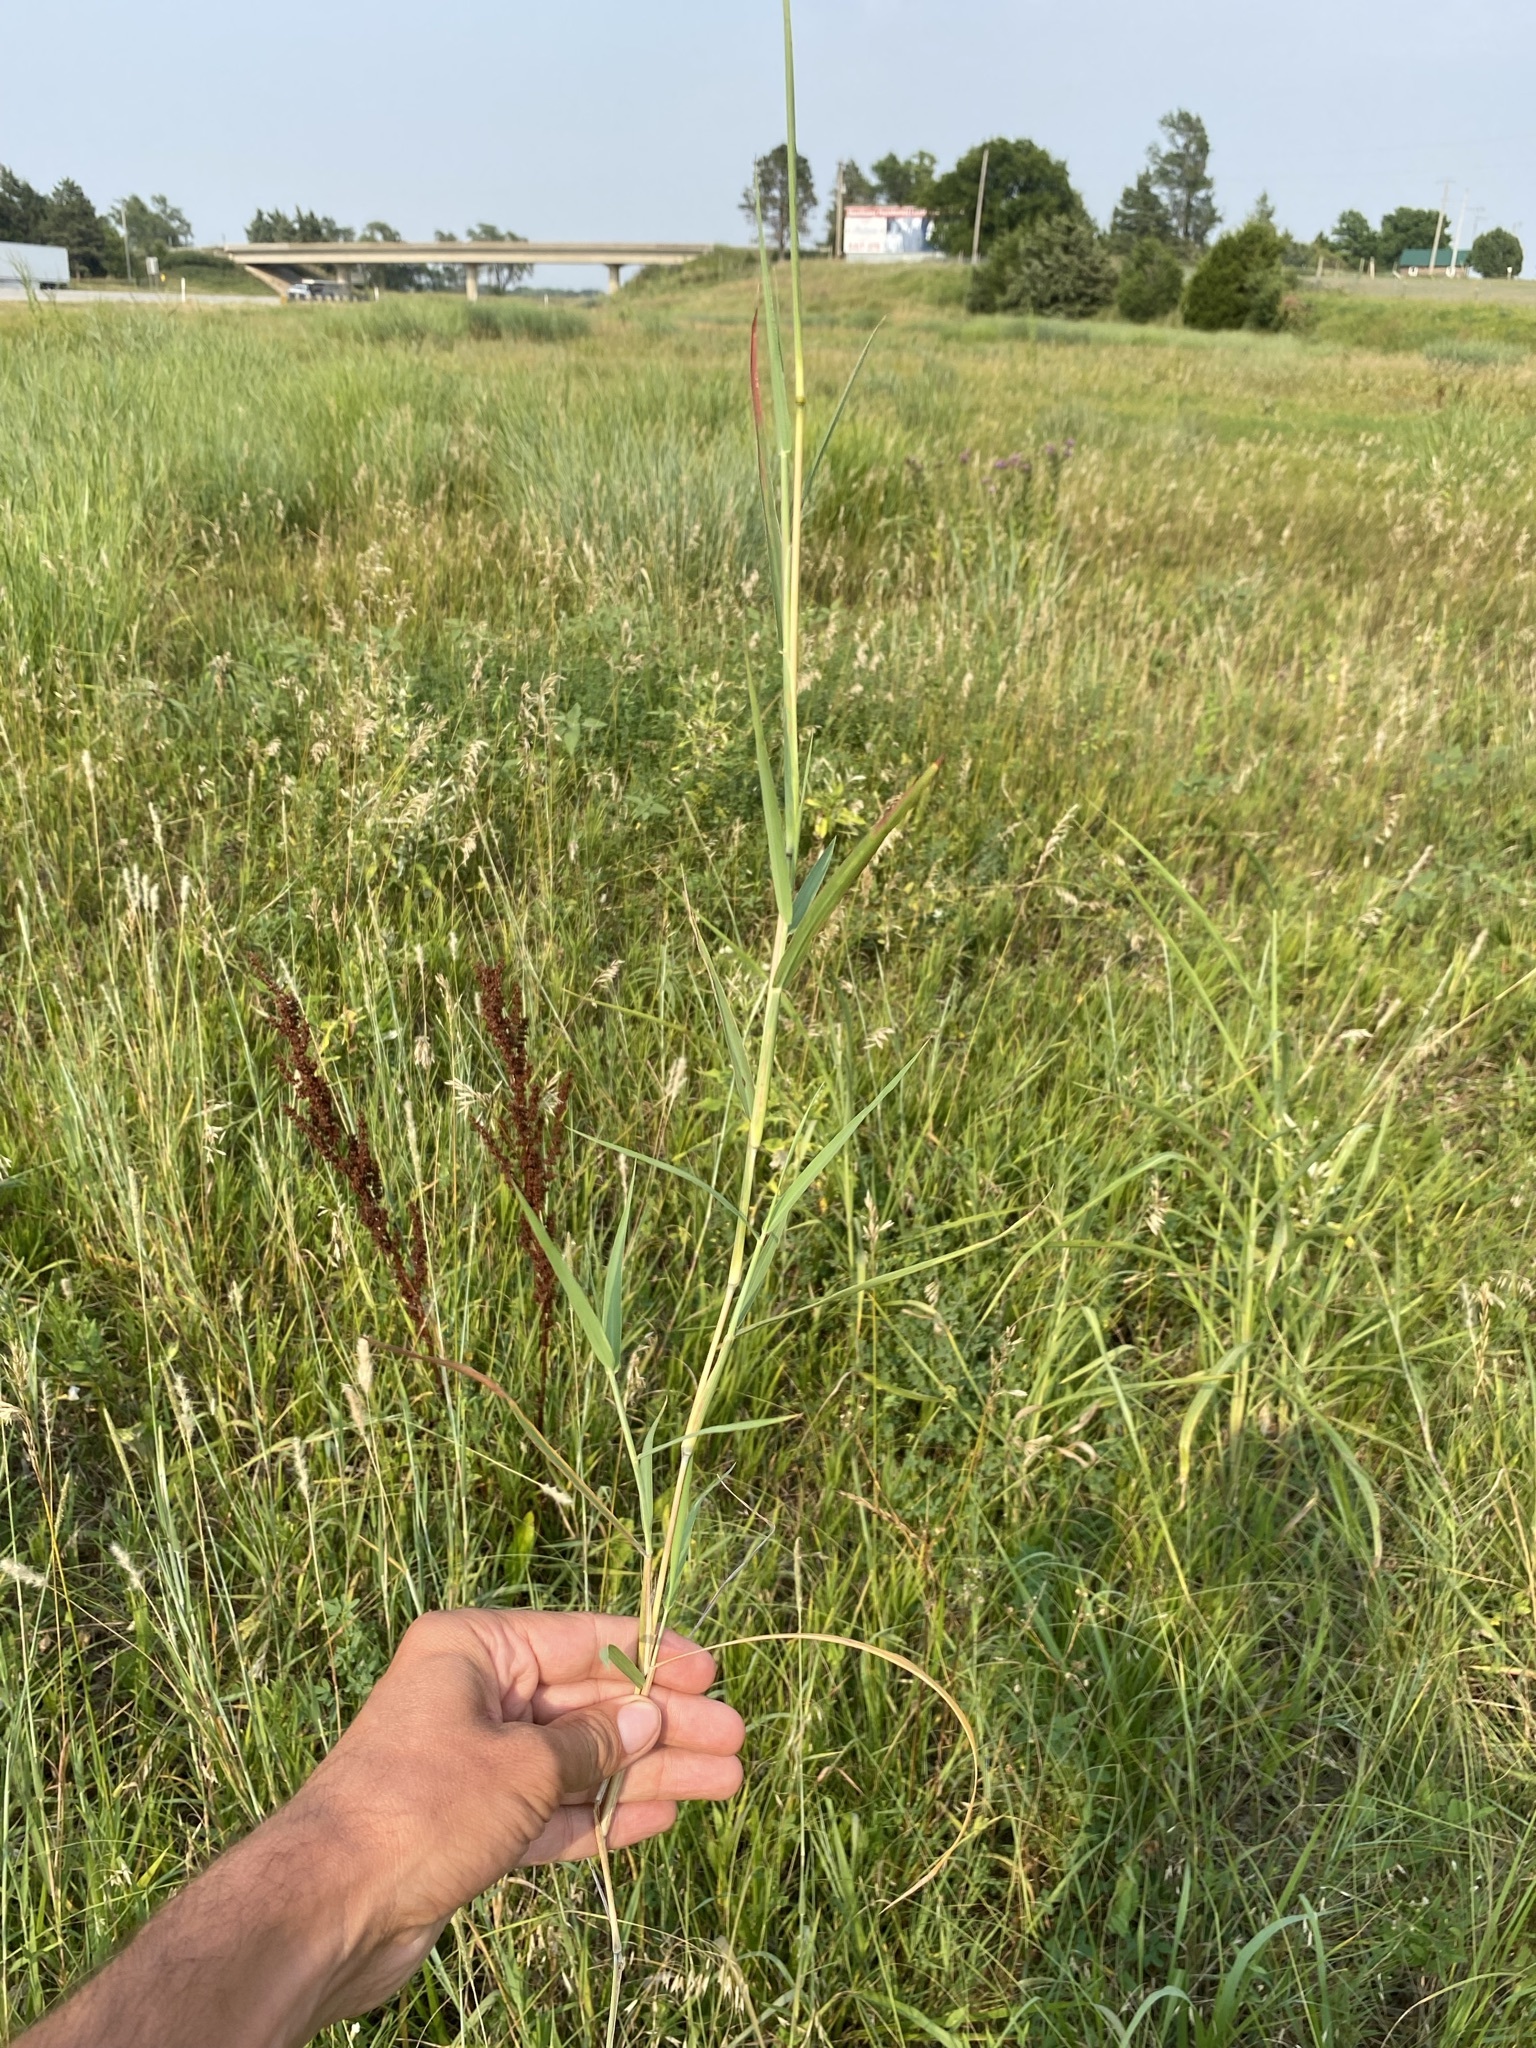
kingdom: Plantae
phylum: Tracheophyta
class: Liliopsida
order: Poales
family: Poaceae
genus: Bothriochloa
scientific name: Bothriochloa torreyana
